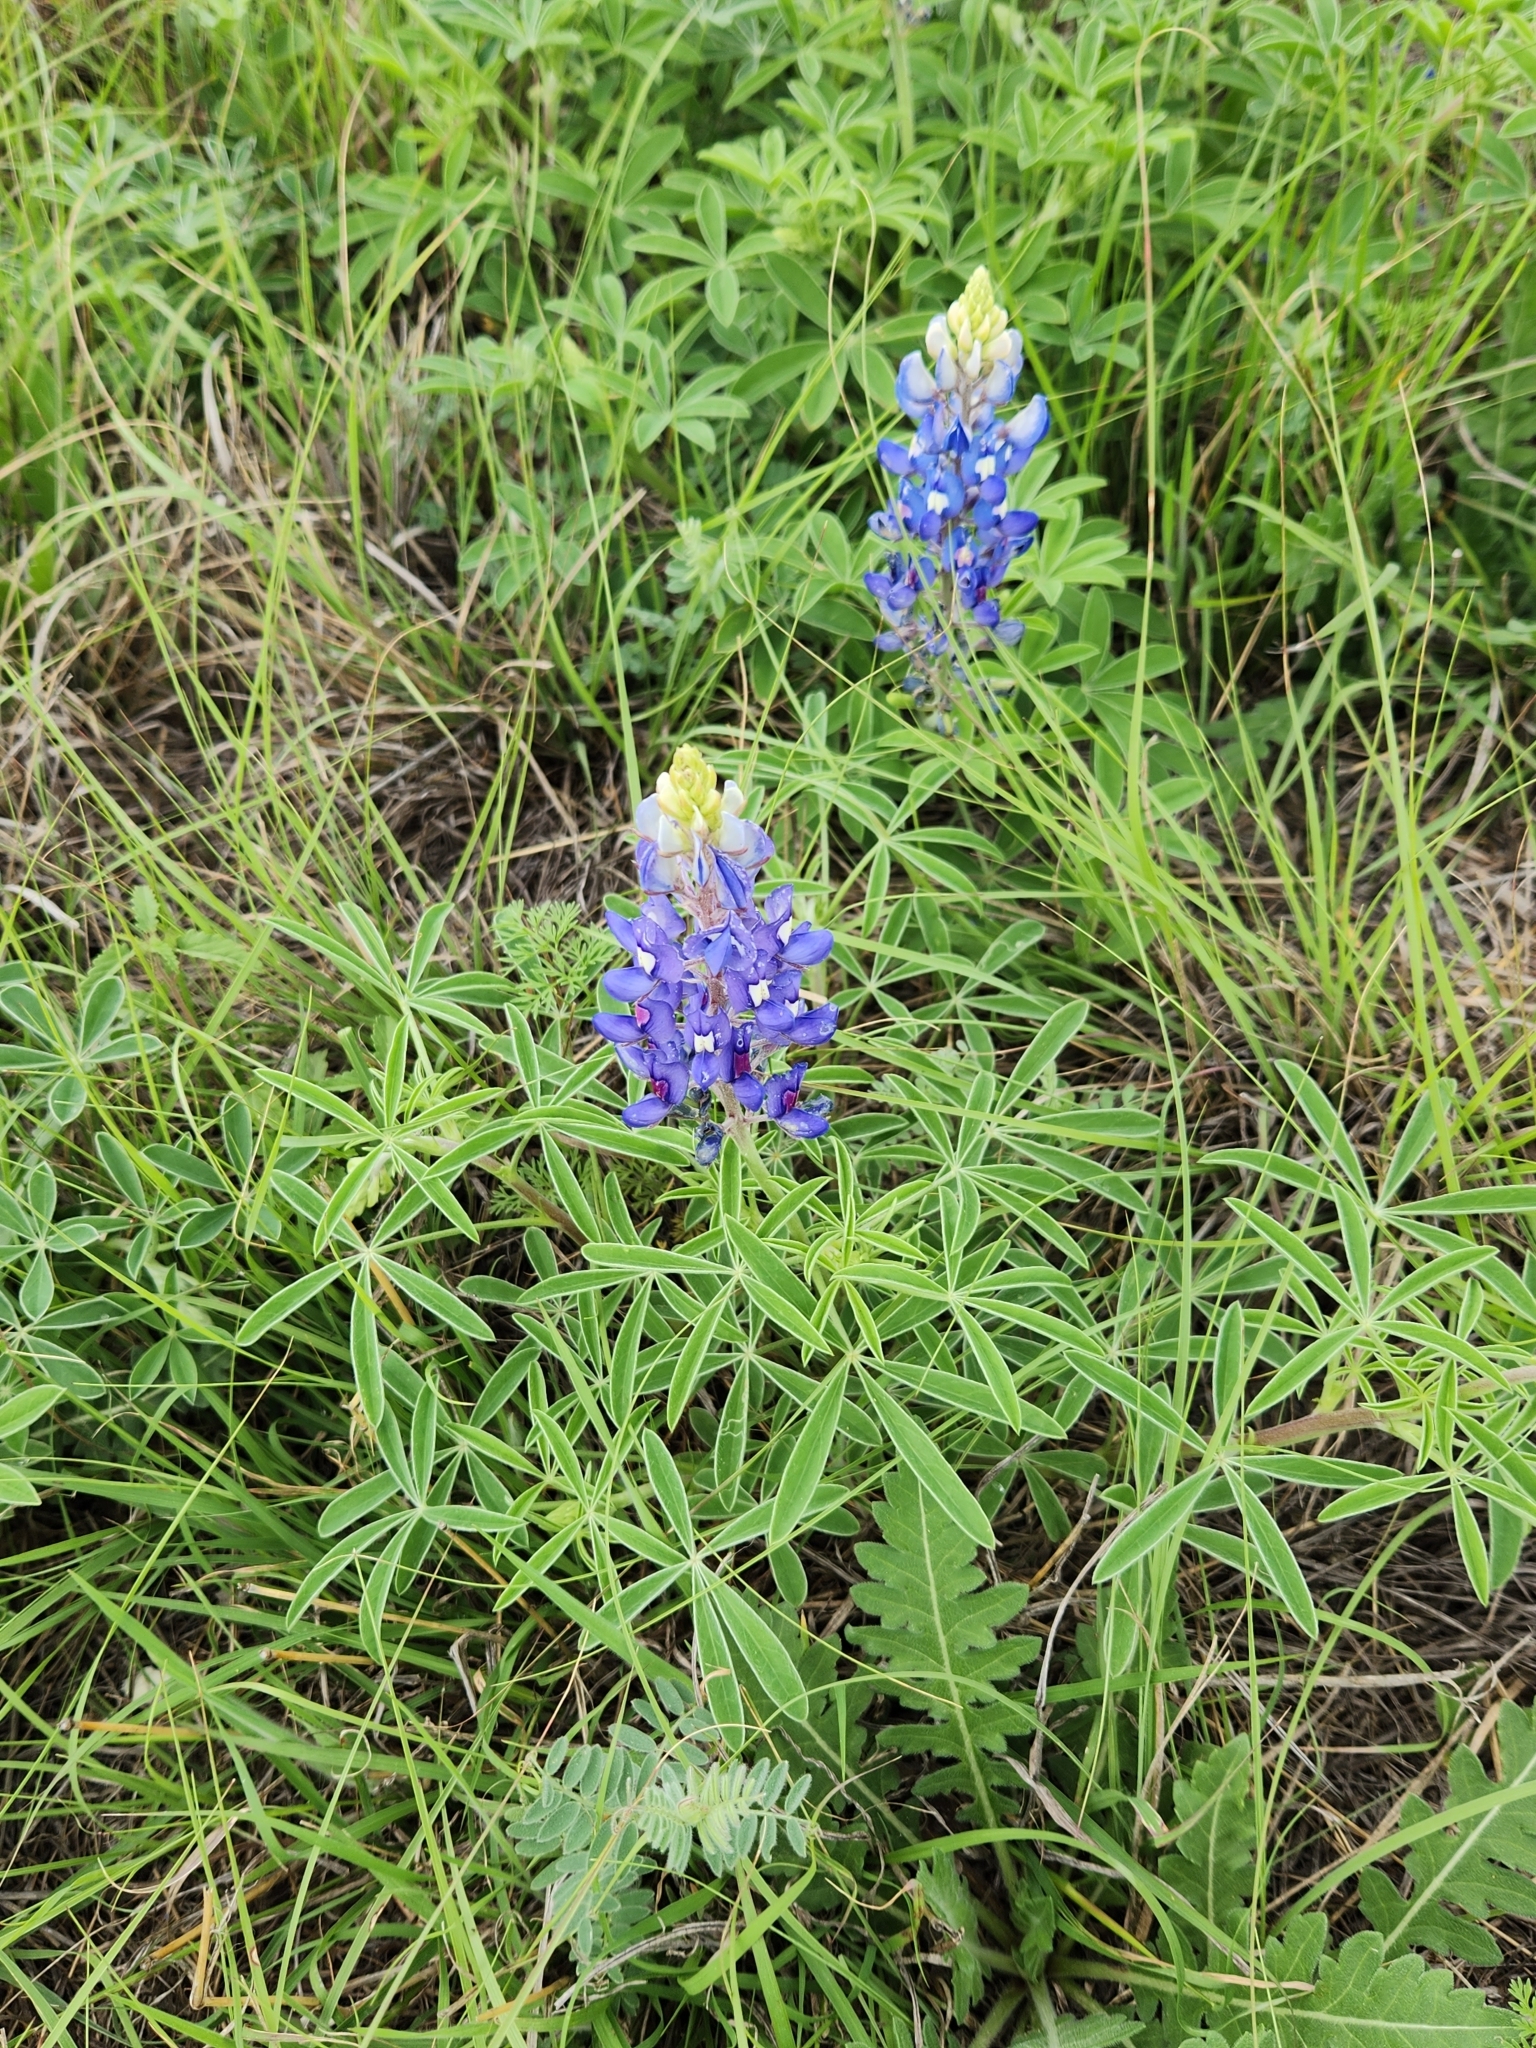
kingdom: Plantae
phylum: Tracheophyta
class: Magnoliopsida
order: Fabales
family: Fabaceae
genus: Lupinus
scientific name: Lupinus texensis
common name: Texas bluebonnet
